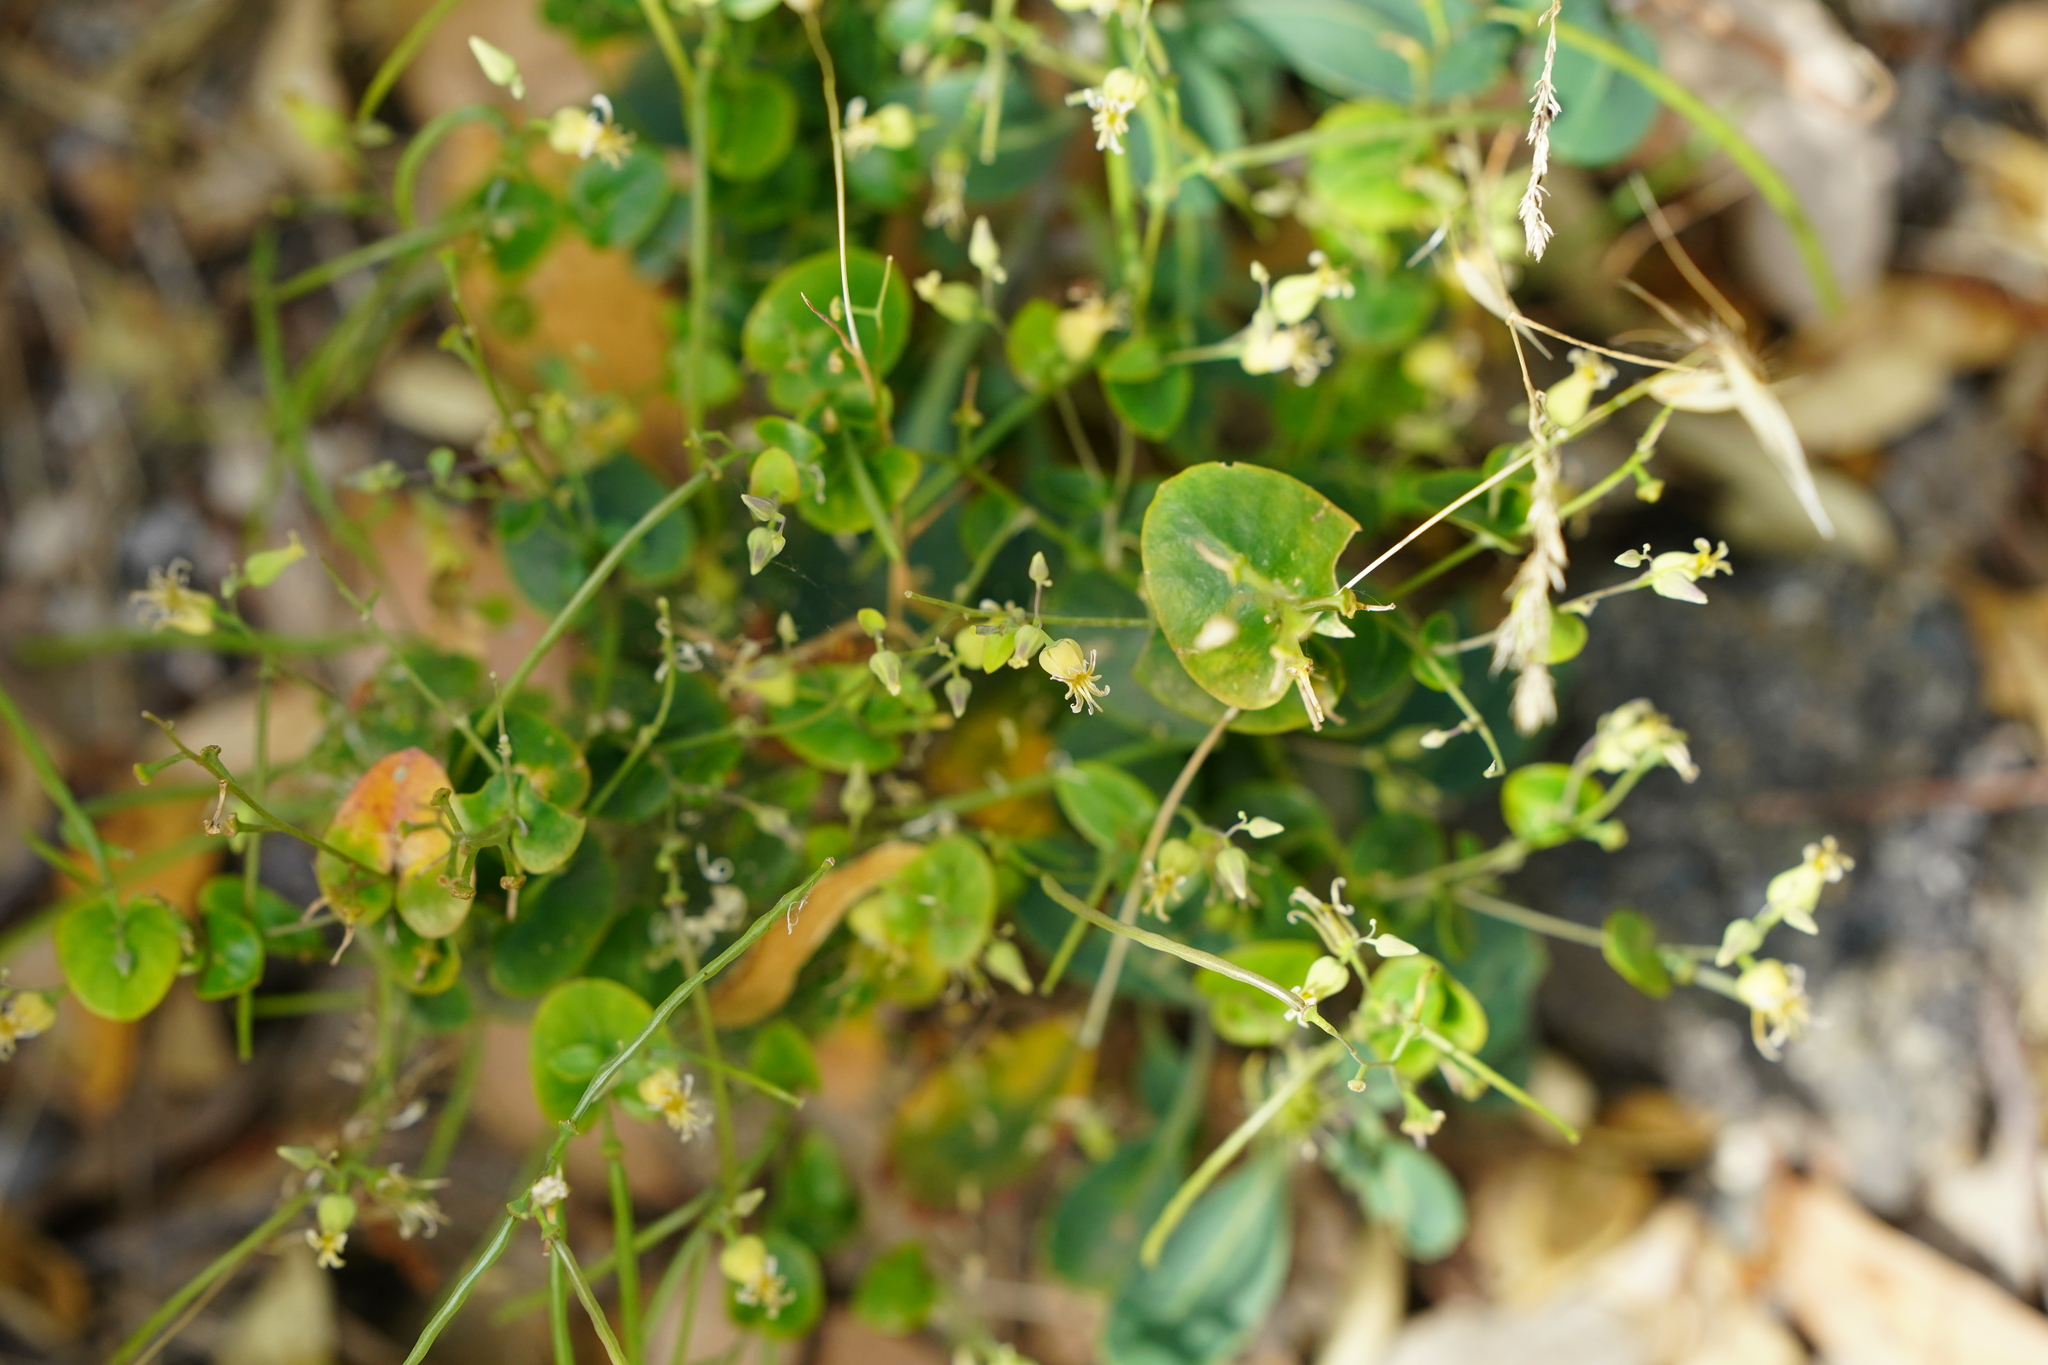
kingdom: Plantae
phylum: Tracheophyta
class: Magnoliopsida
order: Brassicales
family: Brassicaceae
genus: Streptanthus
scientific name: Streptanthus tortuosus
